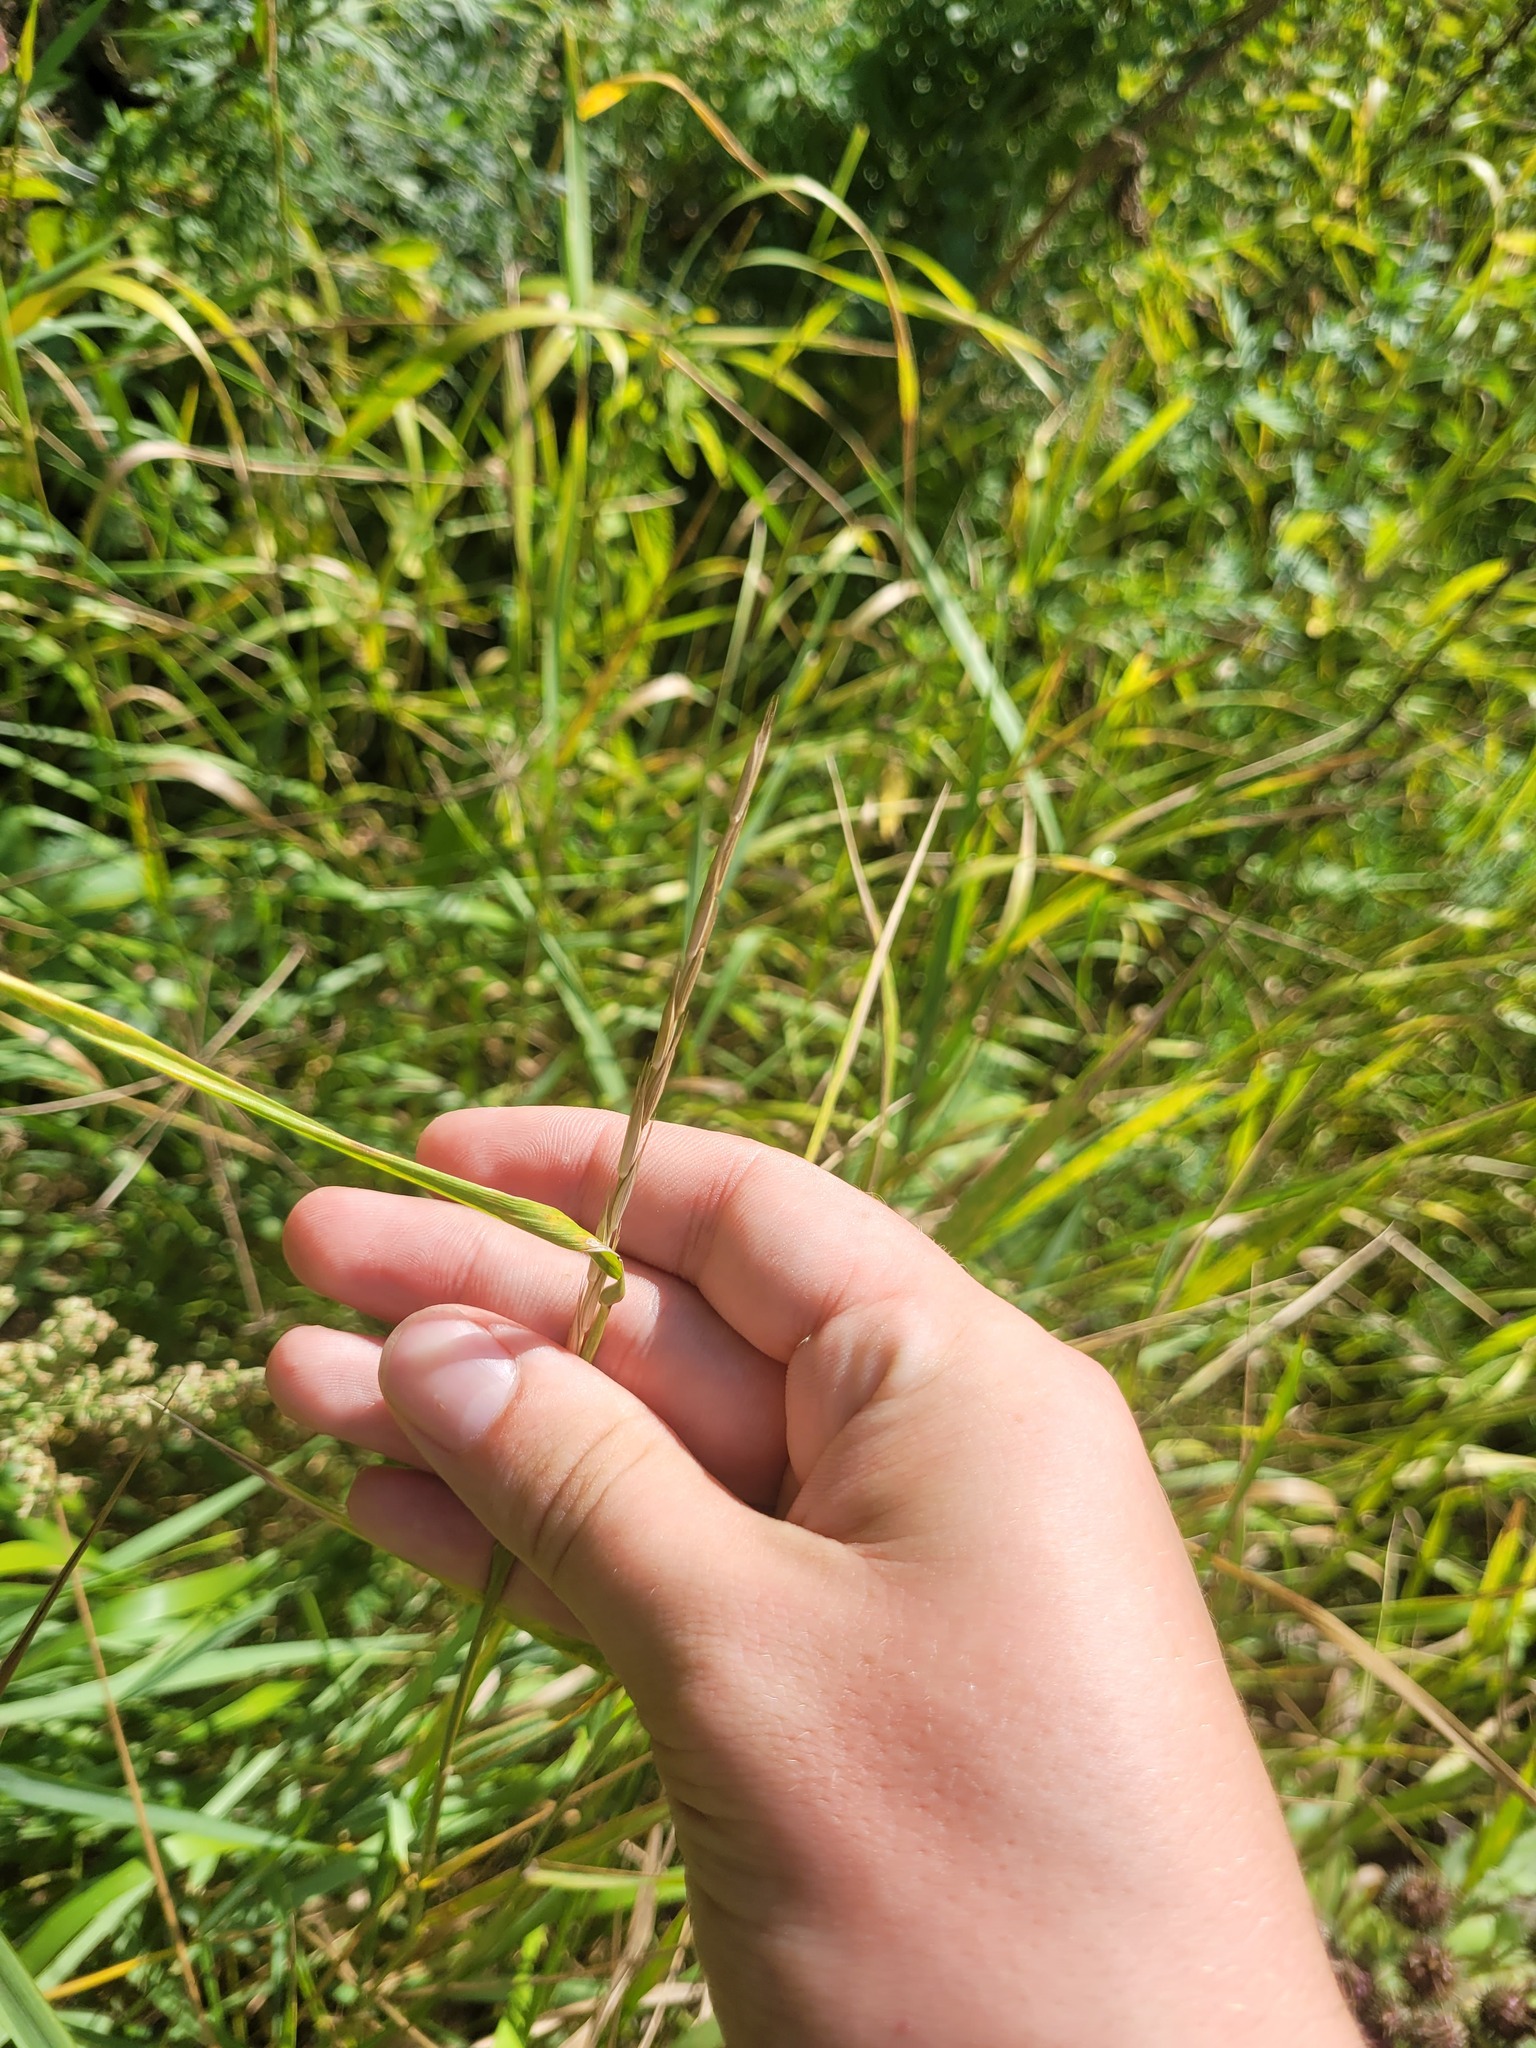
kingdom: Plantae
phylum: Tracheophyta
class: Liliopsida
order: Poales
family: Poaceae
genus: Elymus
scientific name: Elymus repens
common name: Quackgrass
